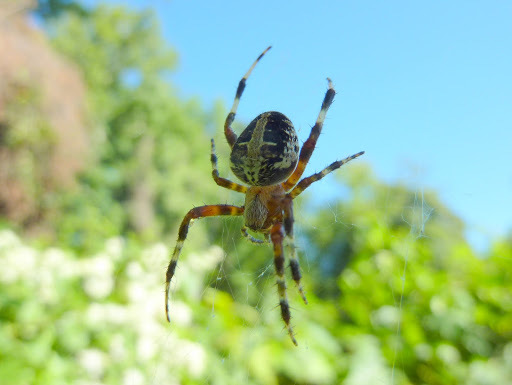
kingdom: Animalia
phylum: Arthropoda
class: Arachnida
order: Araneae
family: Araneidae
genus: Neoscona
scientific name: Neoscona domiciliorum
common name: Red-femured spotted orbweaver
